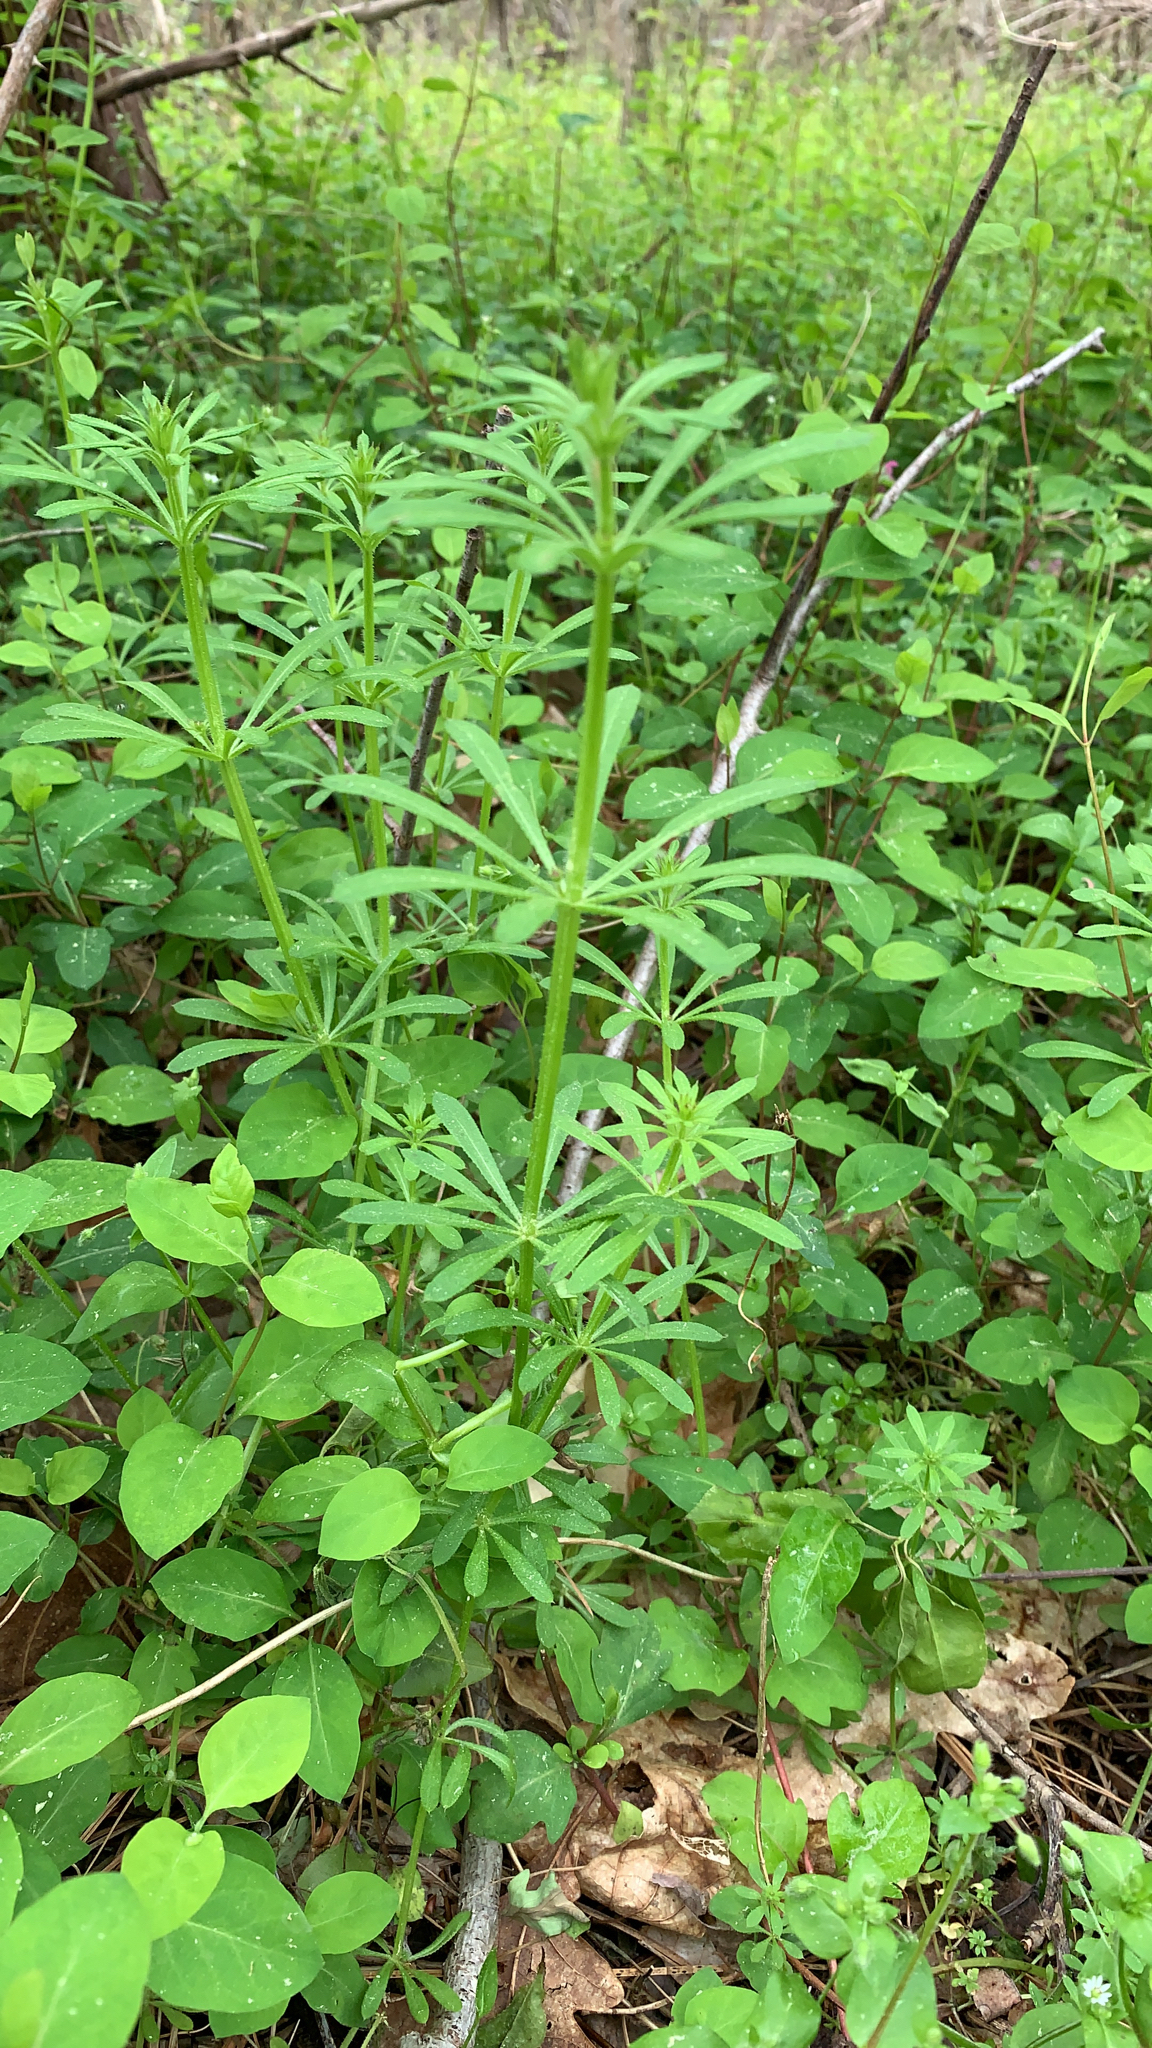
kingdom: Plantae
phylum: Tracheophyta
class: Magnoliopsida
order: Gentianales
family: Rubiaceae
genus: Galium
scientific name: Galium aparine
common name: Cleavers
